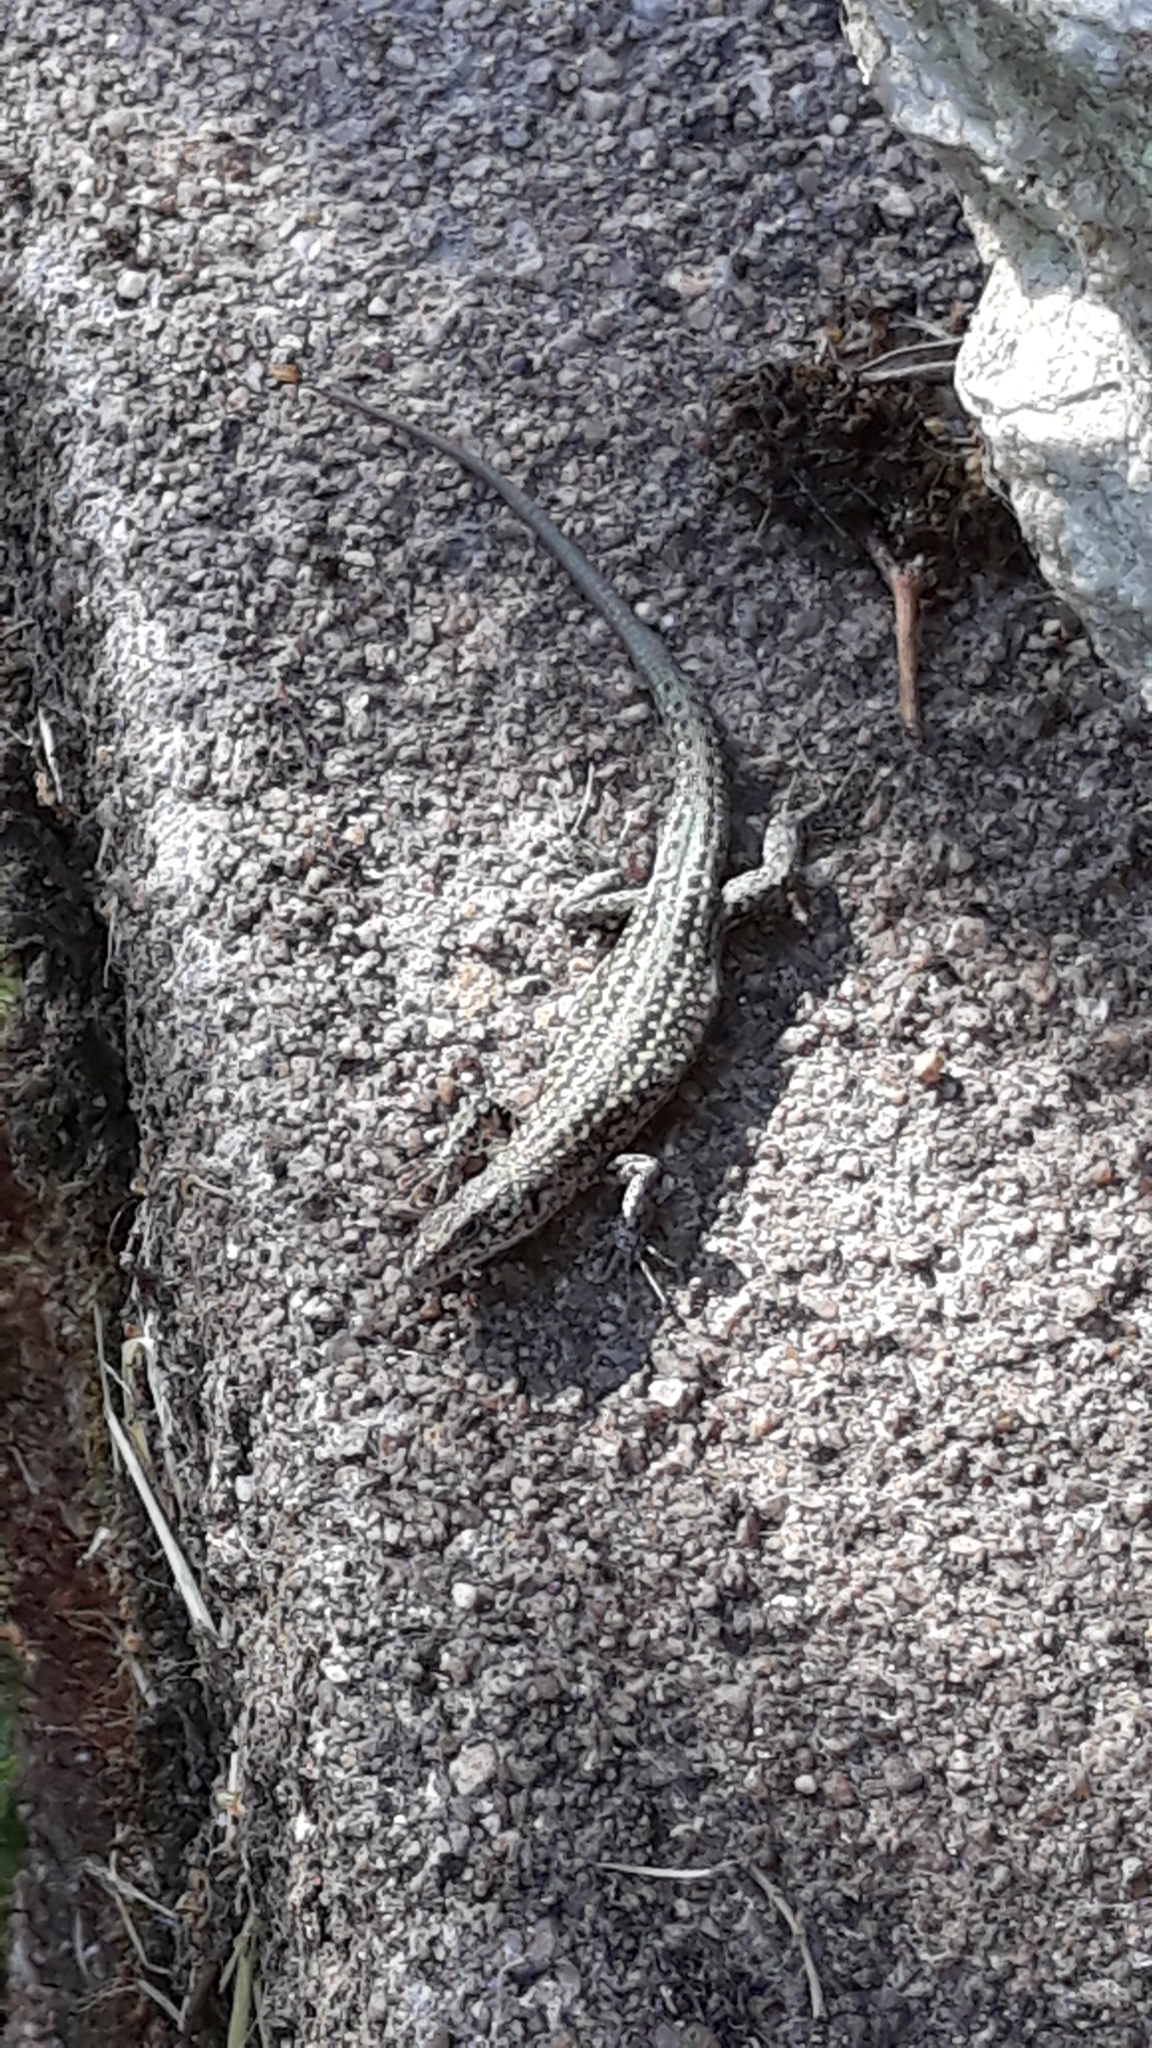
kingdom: Animalia
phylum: Chordata
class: Squamata
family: Lacertidae
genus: Podarcis
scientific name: Podarcis
